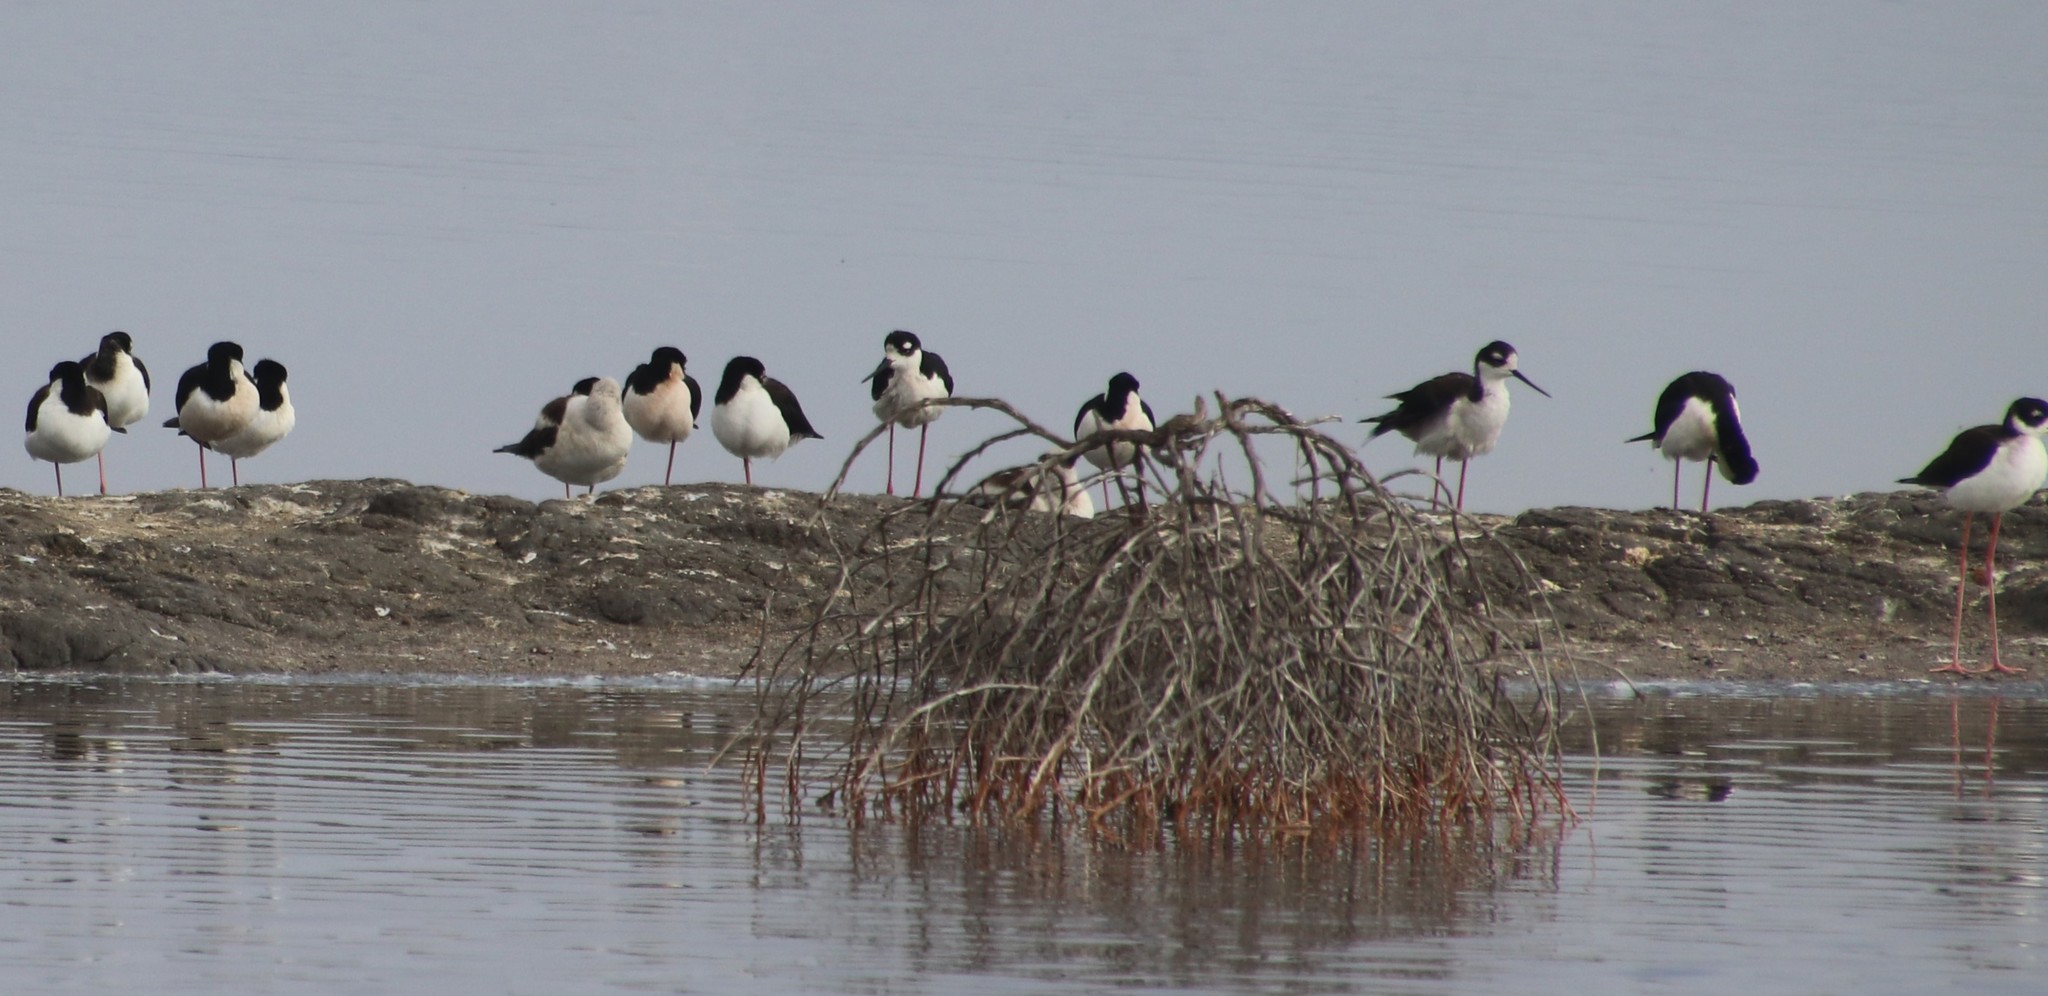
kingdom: Animalia
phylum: Chordata
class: Aves
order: Charadriiformes
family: Recurvirostridae
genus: Himantopus
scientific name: Himantopus mexicanus
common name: Black-necked stilt
